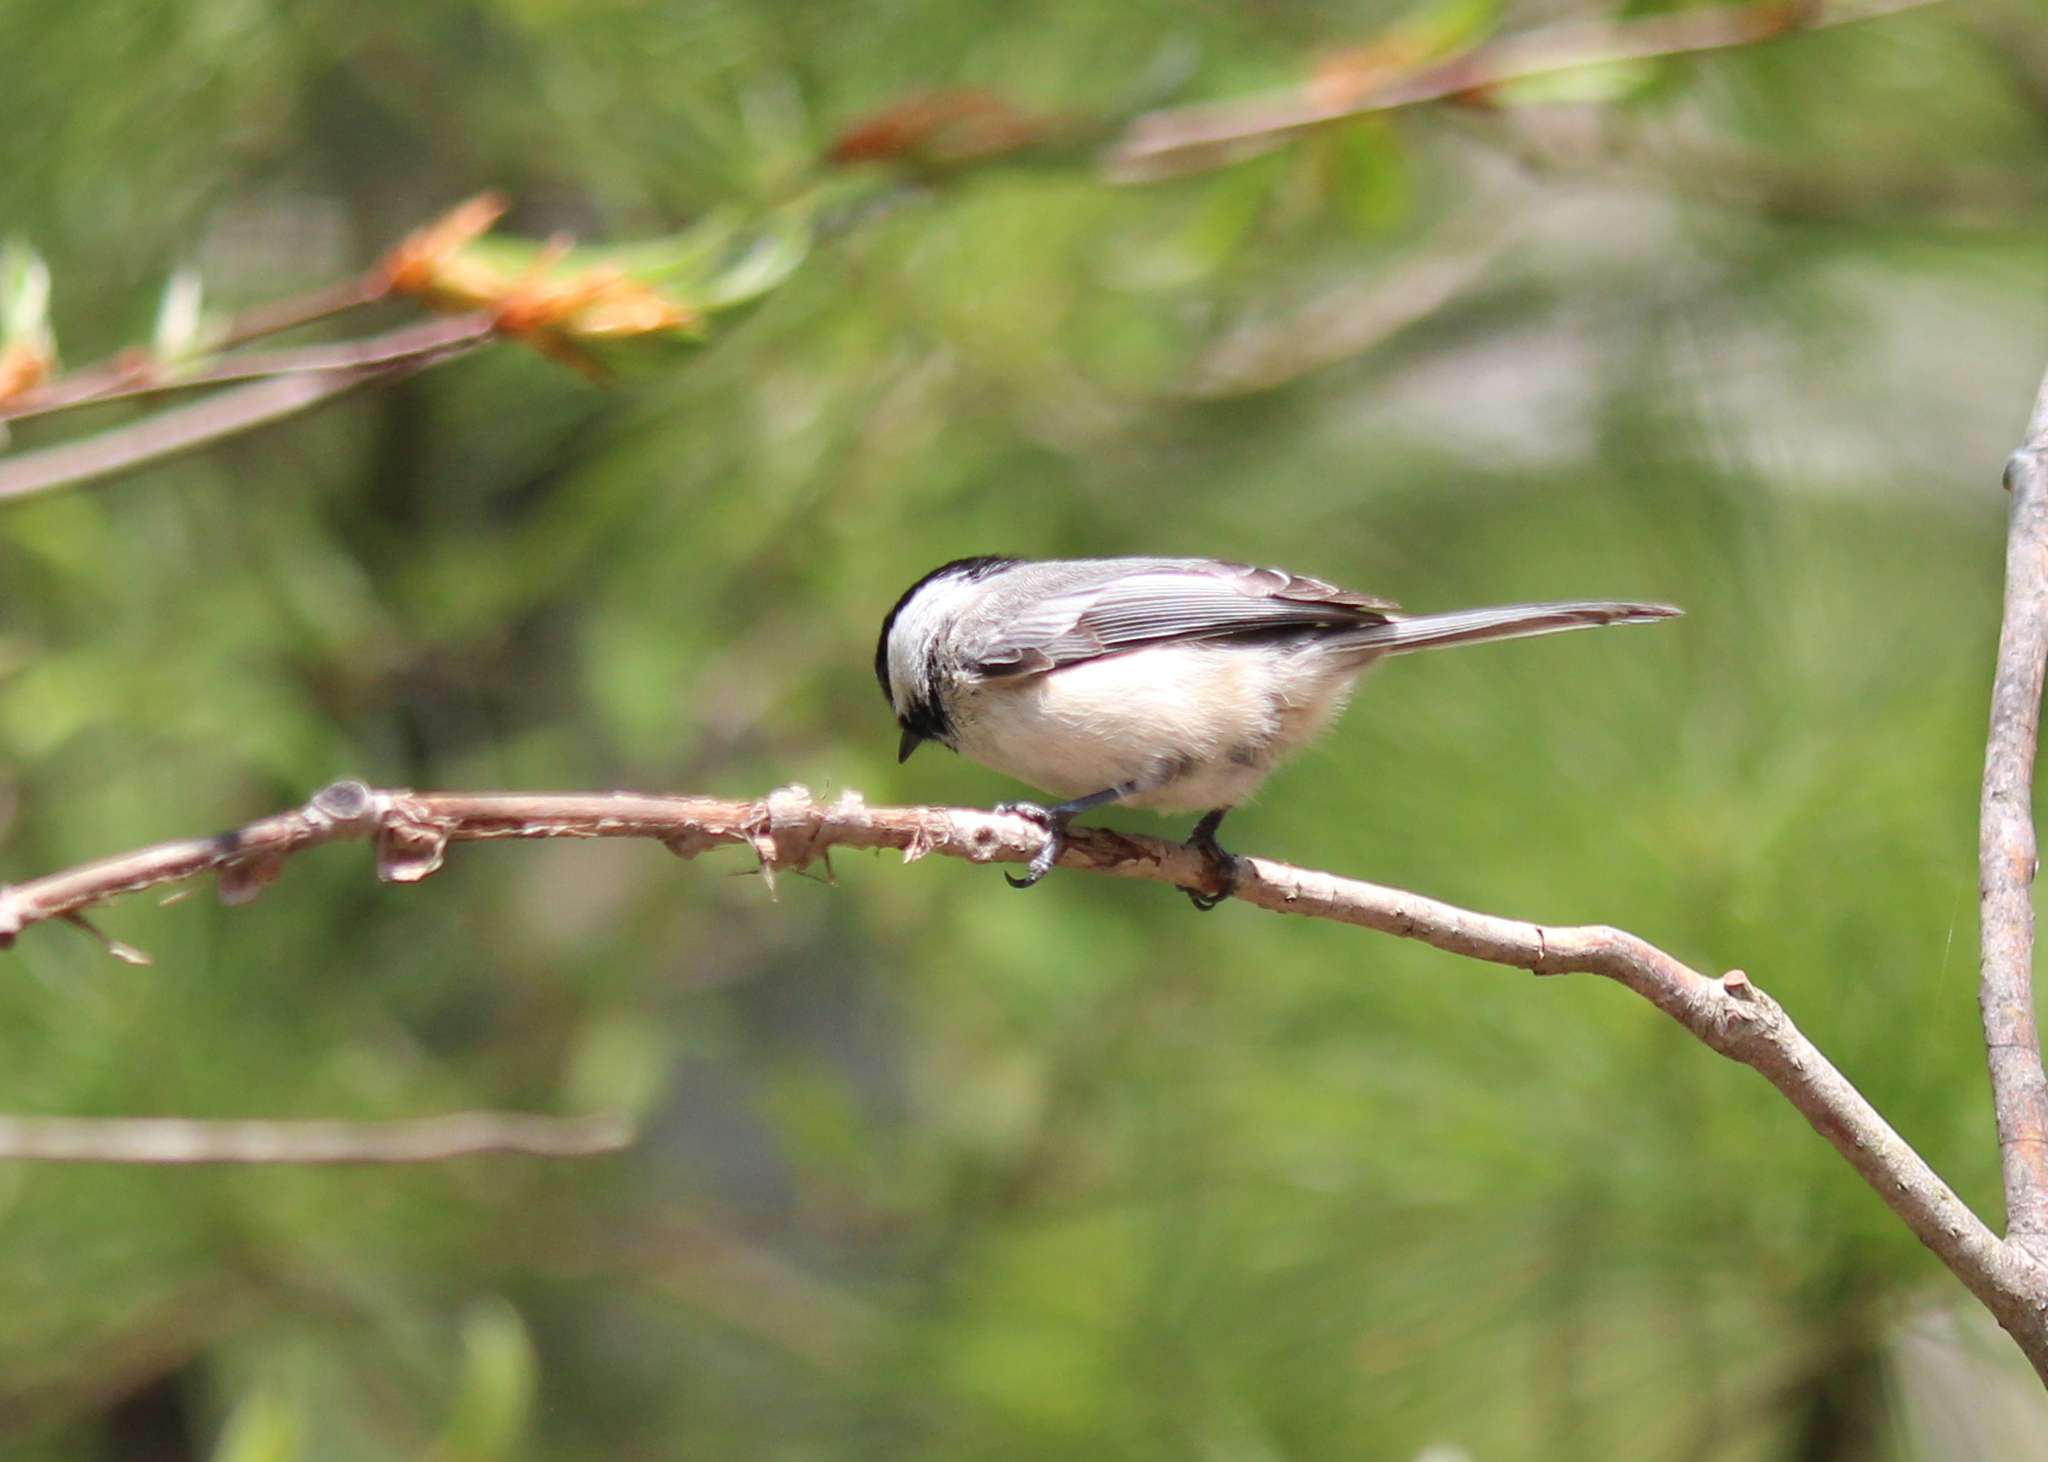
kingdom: Animalia
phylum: Chordata
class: Aves
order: Passeriformes
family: Paridae
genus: Poecile
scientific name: Poecile atricapillus
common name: Black-capped chickadee
